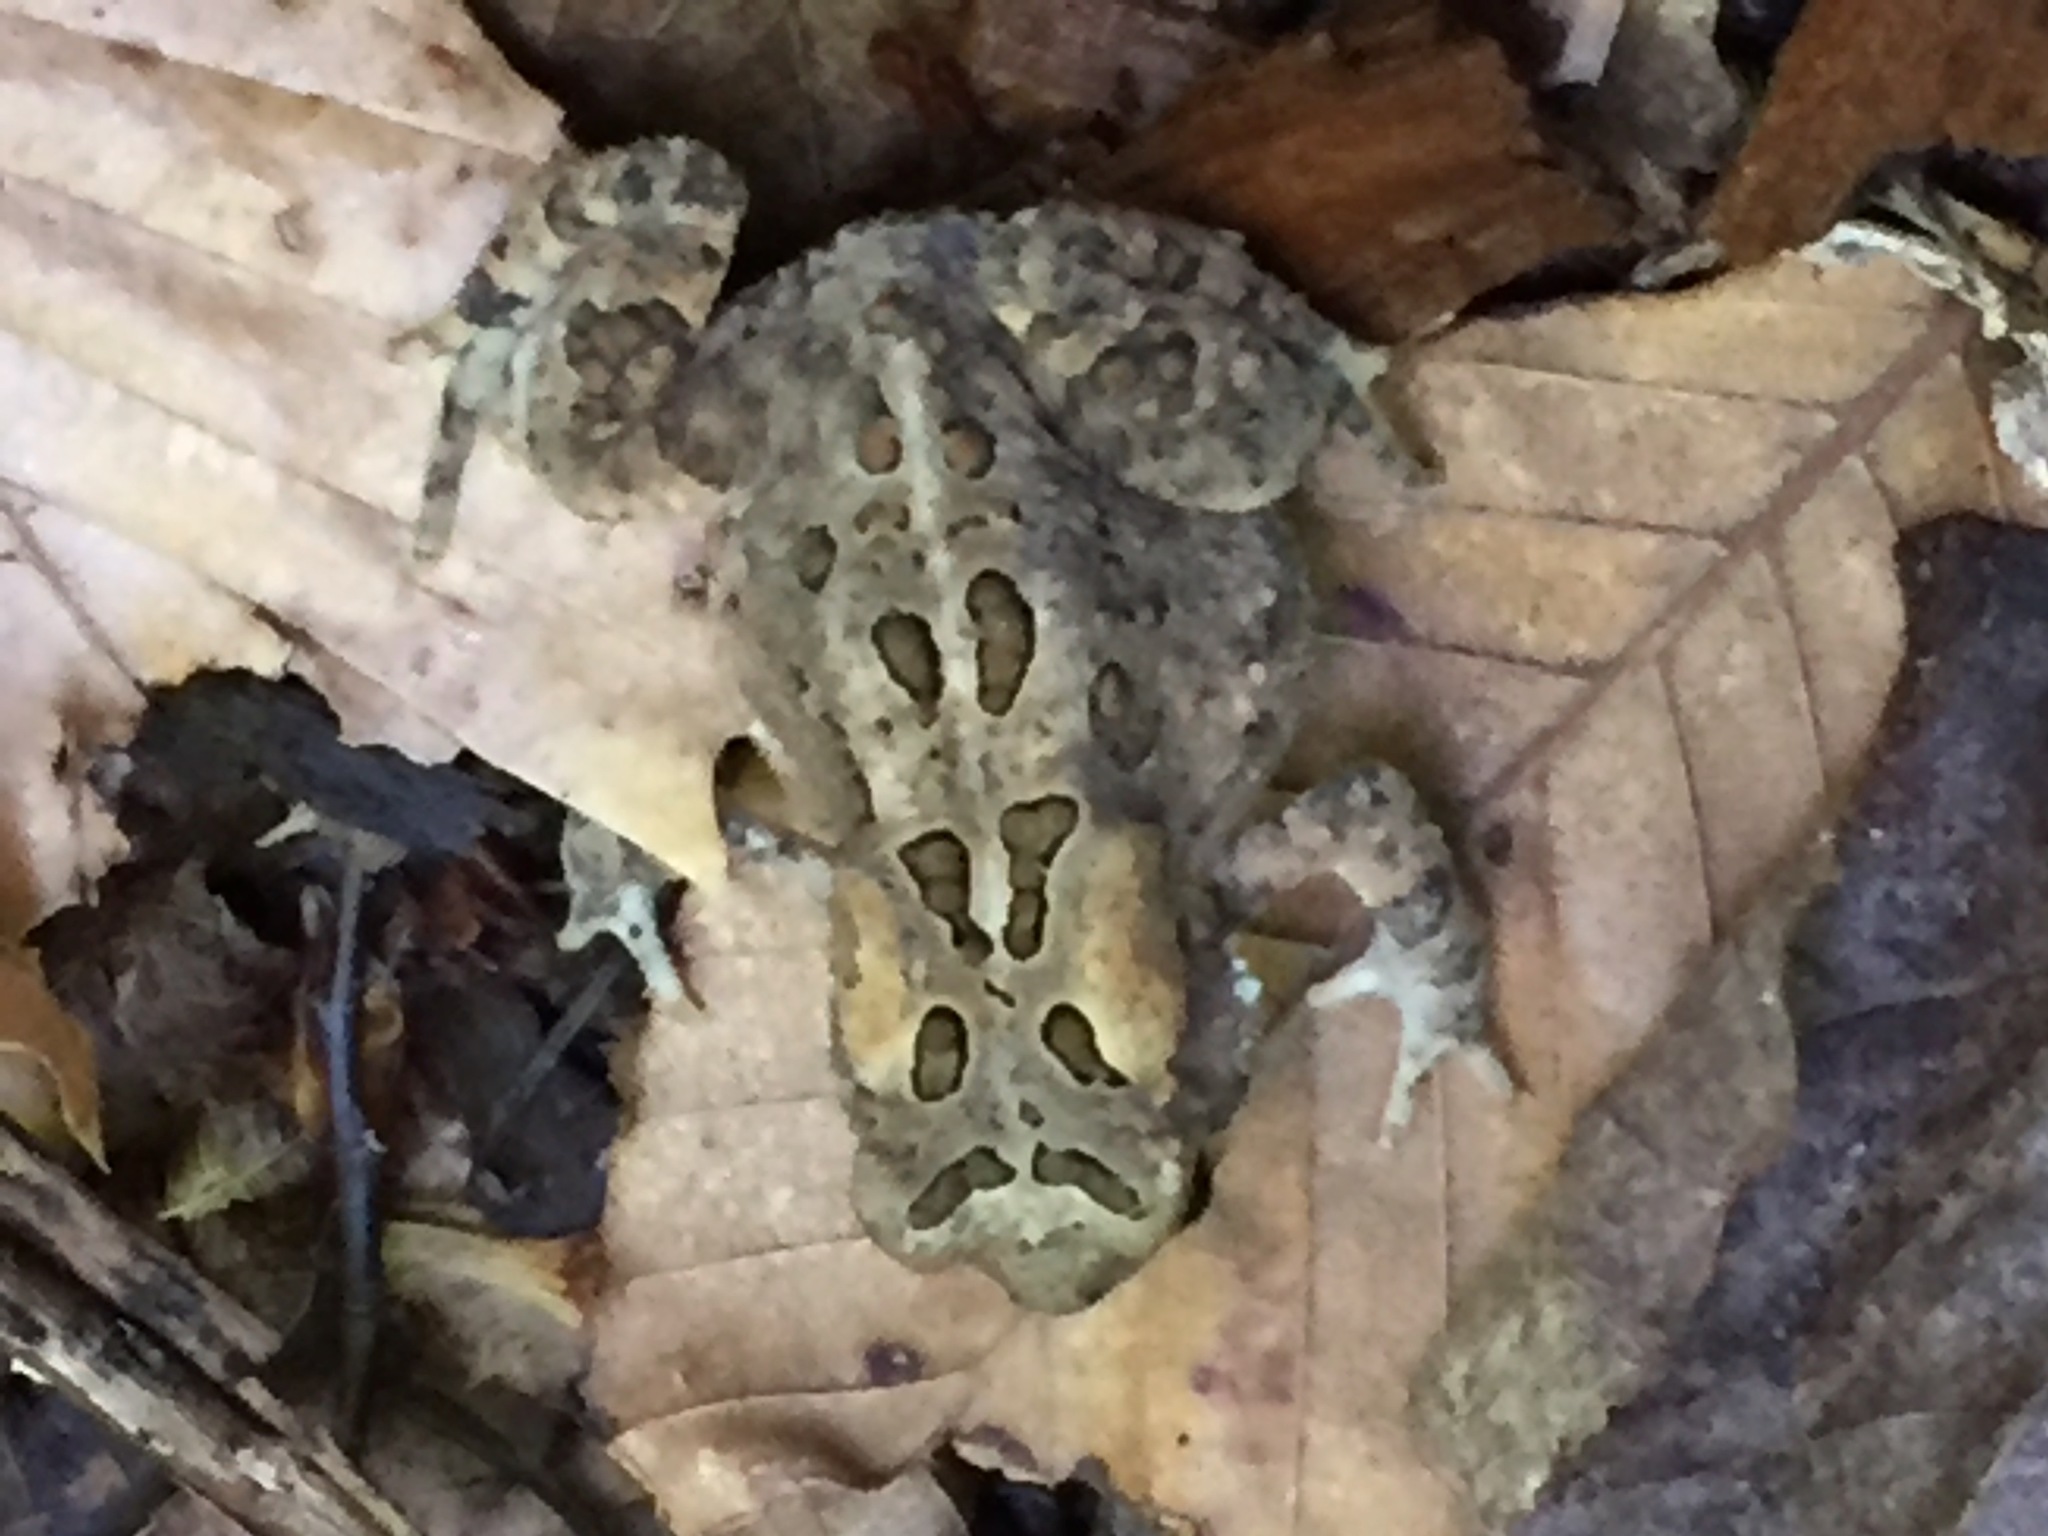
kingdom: Animalia
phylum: Chordata
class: Amphibia
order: Anura
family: Bufonidae
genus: Anaxyrus
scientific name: Anaxyrus americanus
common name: American toad
